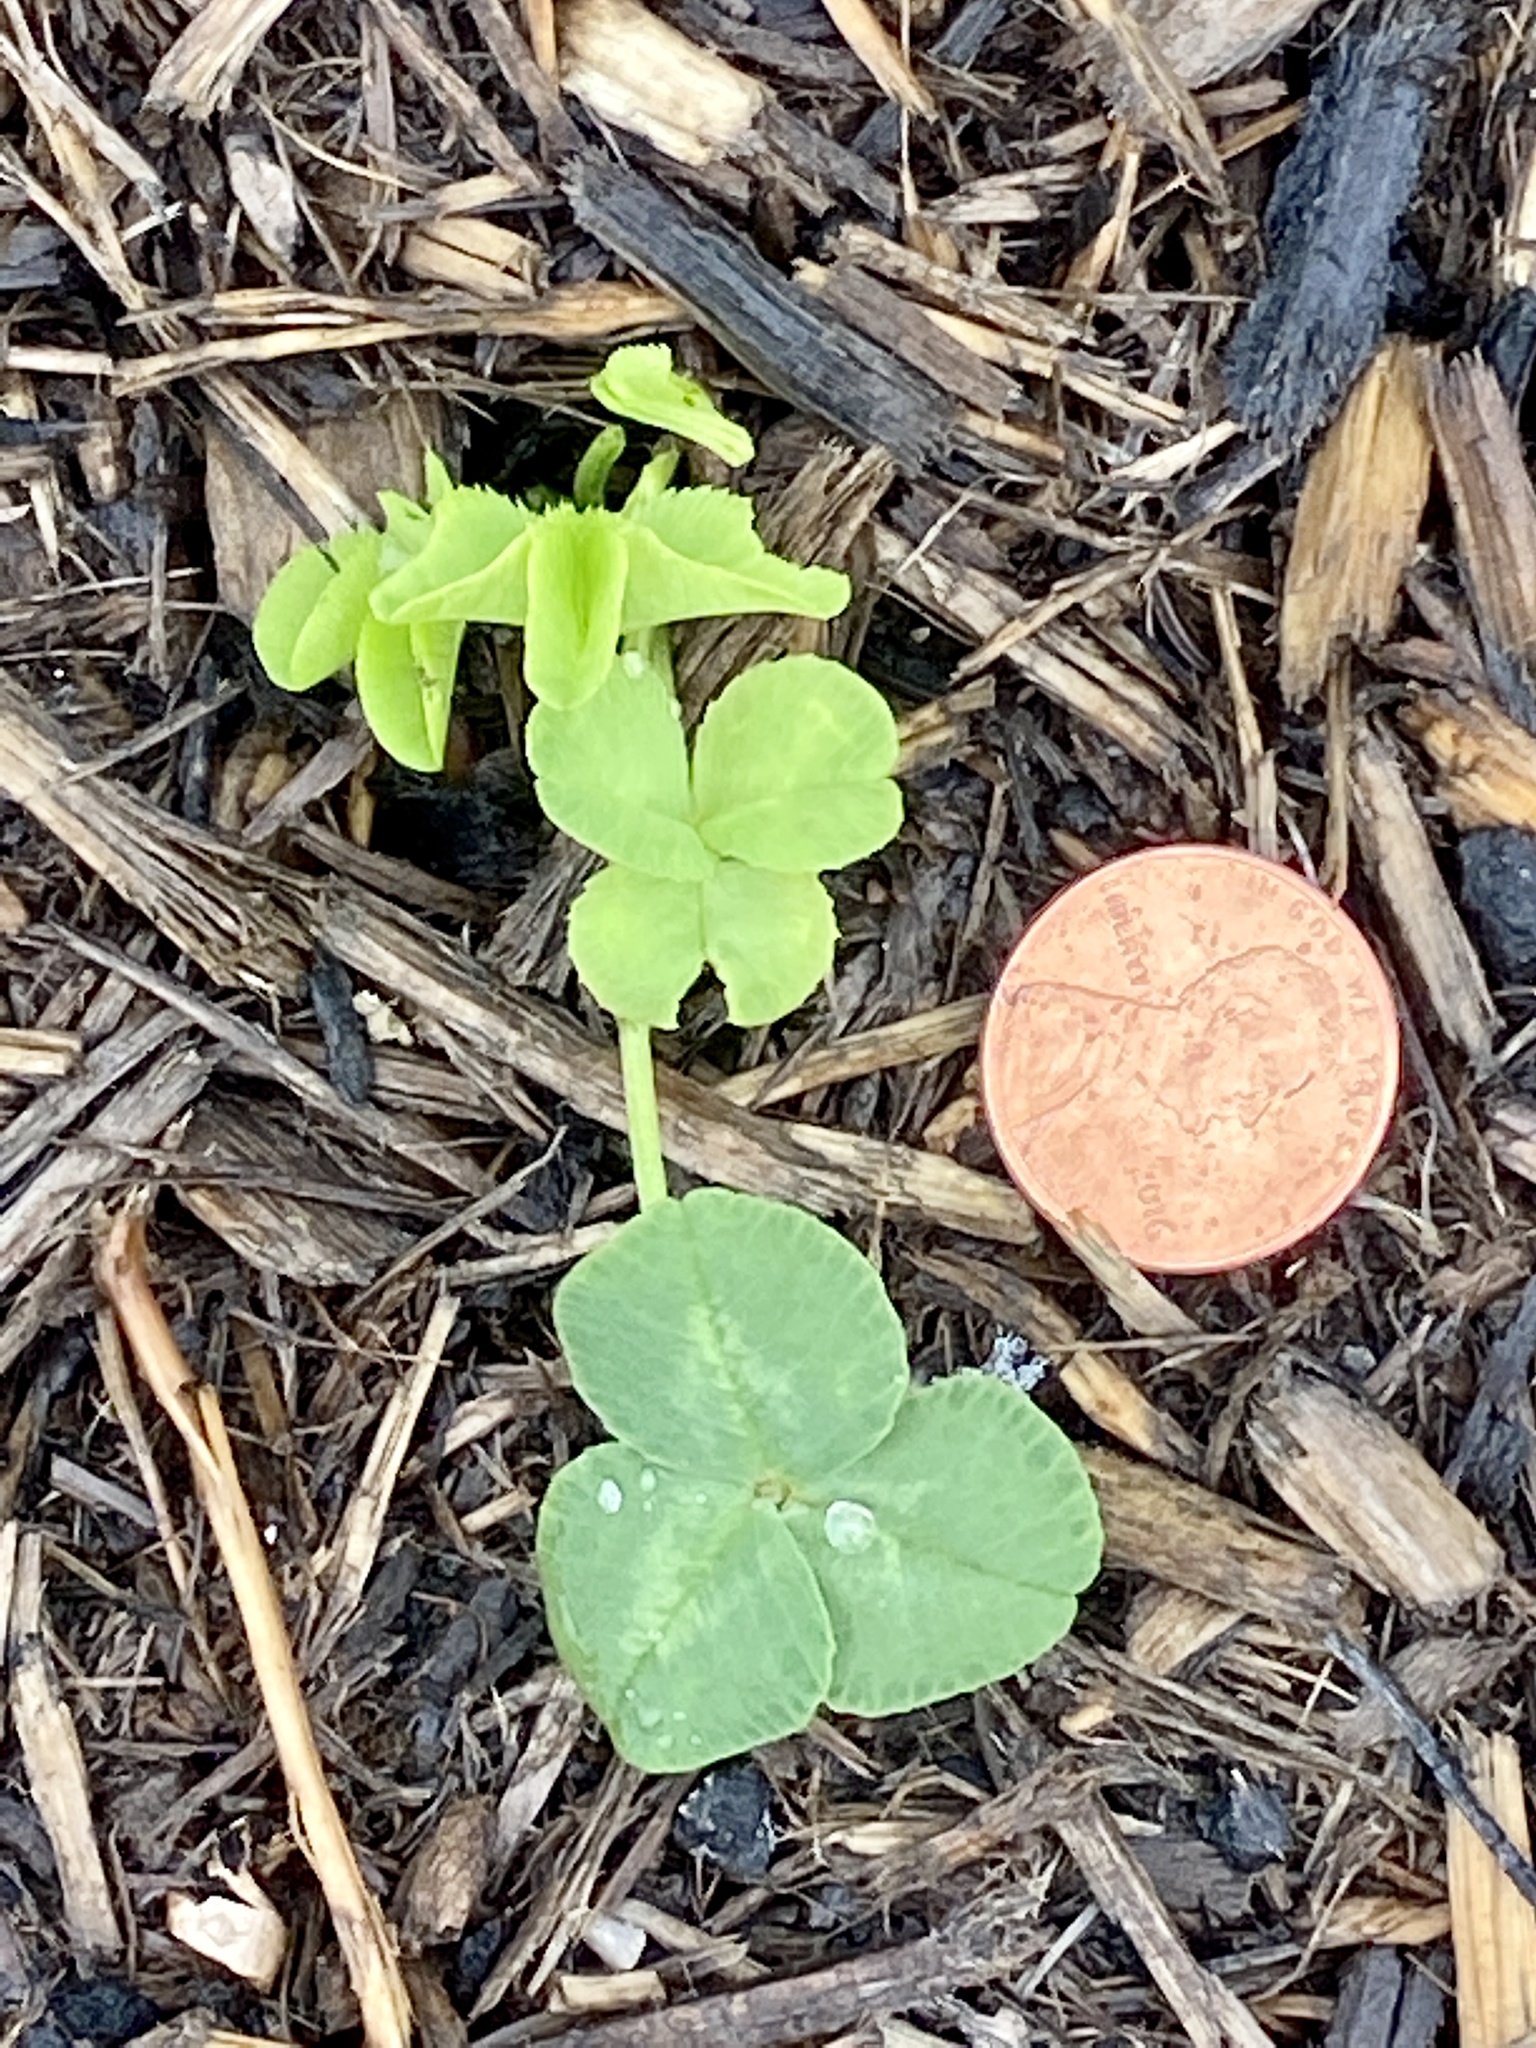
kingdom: Plantae
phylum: Tracheophyta
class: Magnoliopsida
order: Fabales
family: Fabaceae
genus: Trifolium
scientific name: Trifolium repens
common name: White clover
